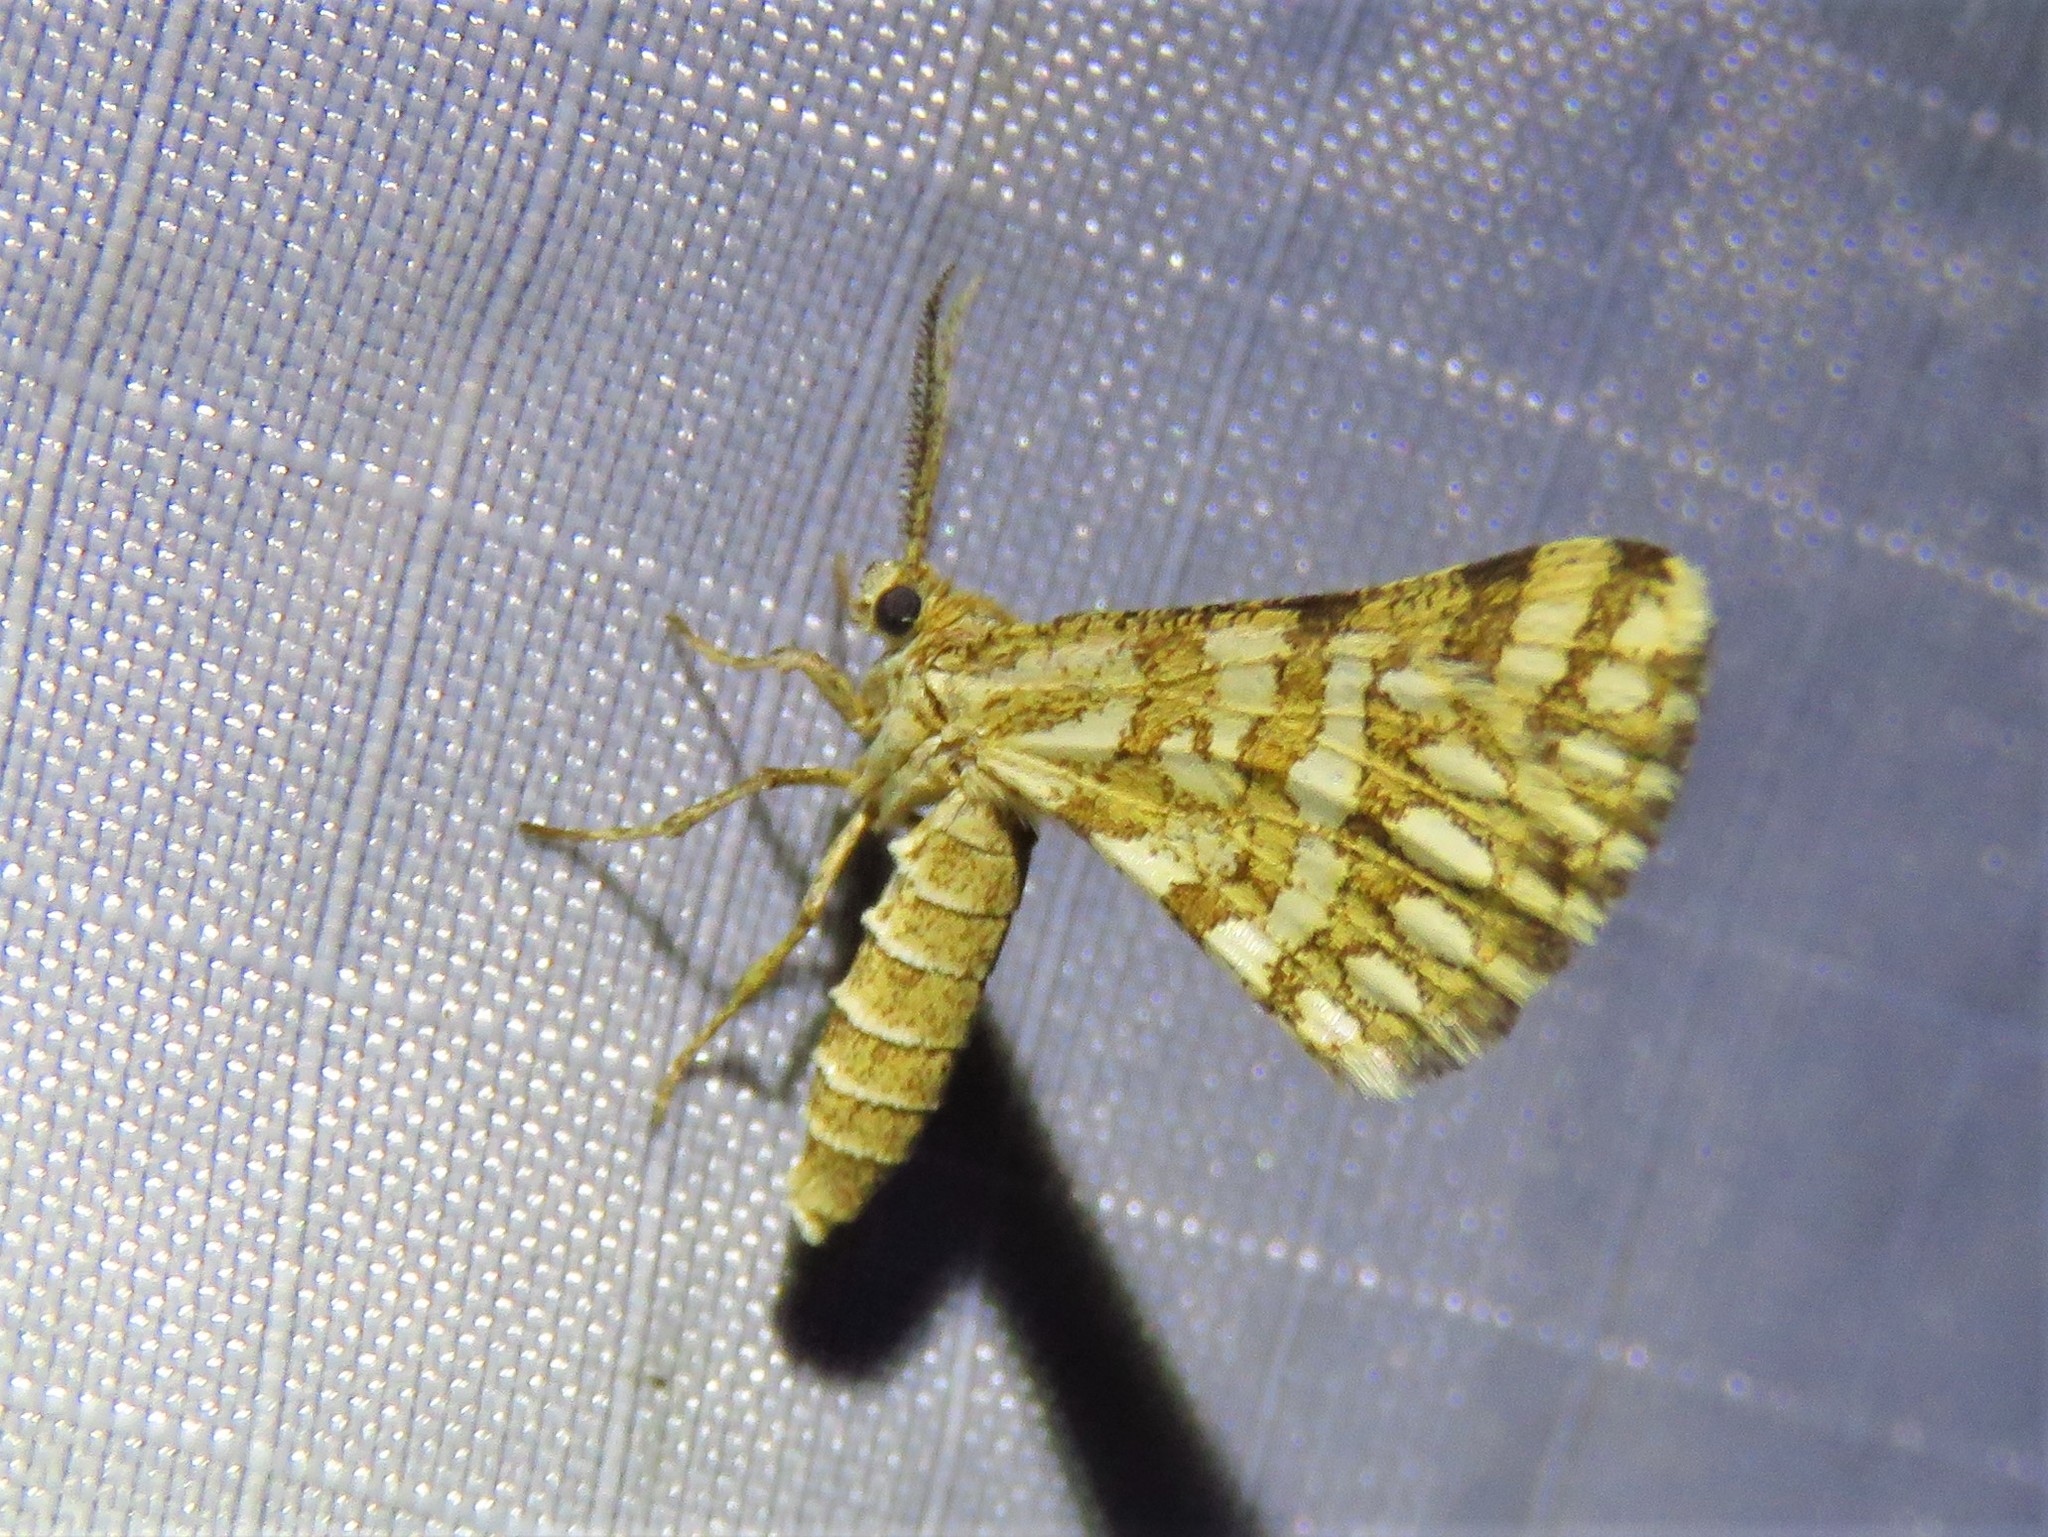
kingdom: Animalia
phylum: Arthropoda
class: Insecta
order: Lepidoptera
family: Geometridae
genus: Narraga
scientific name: Narraga fimetaria
